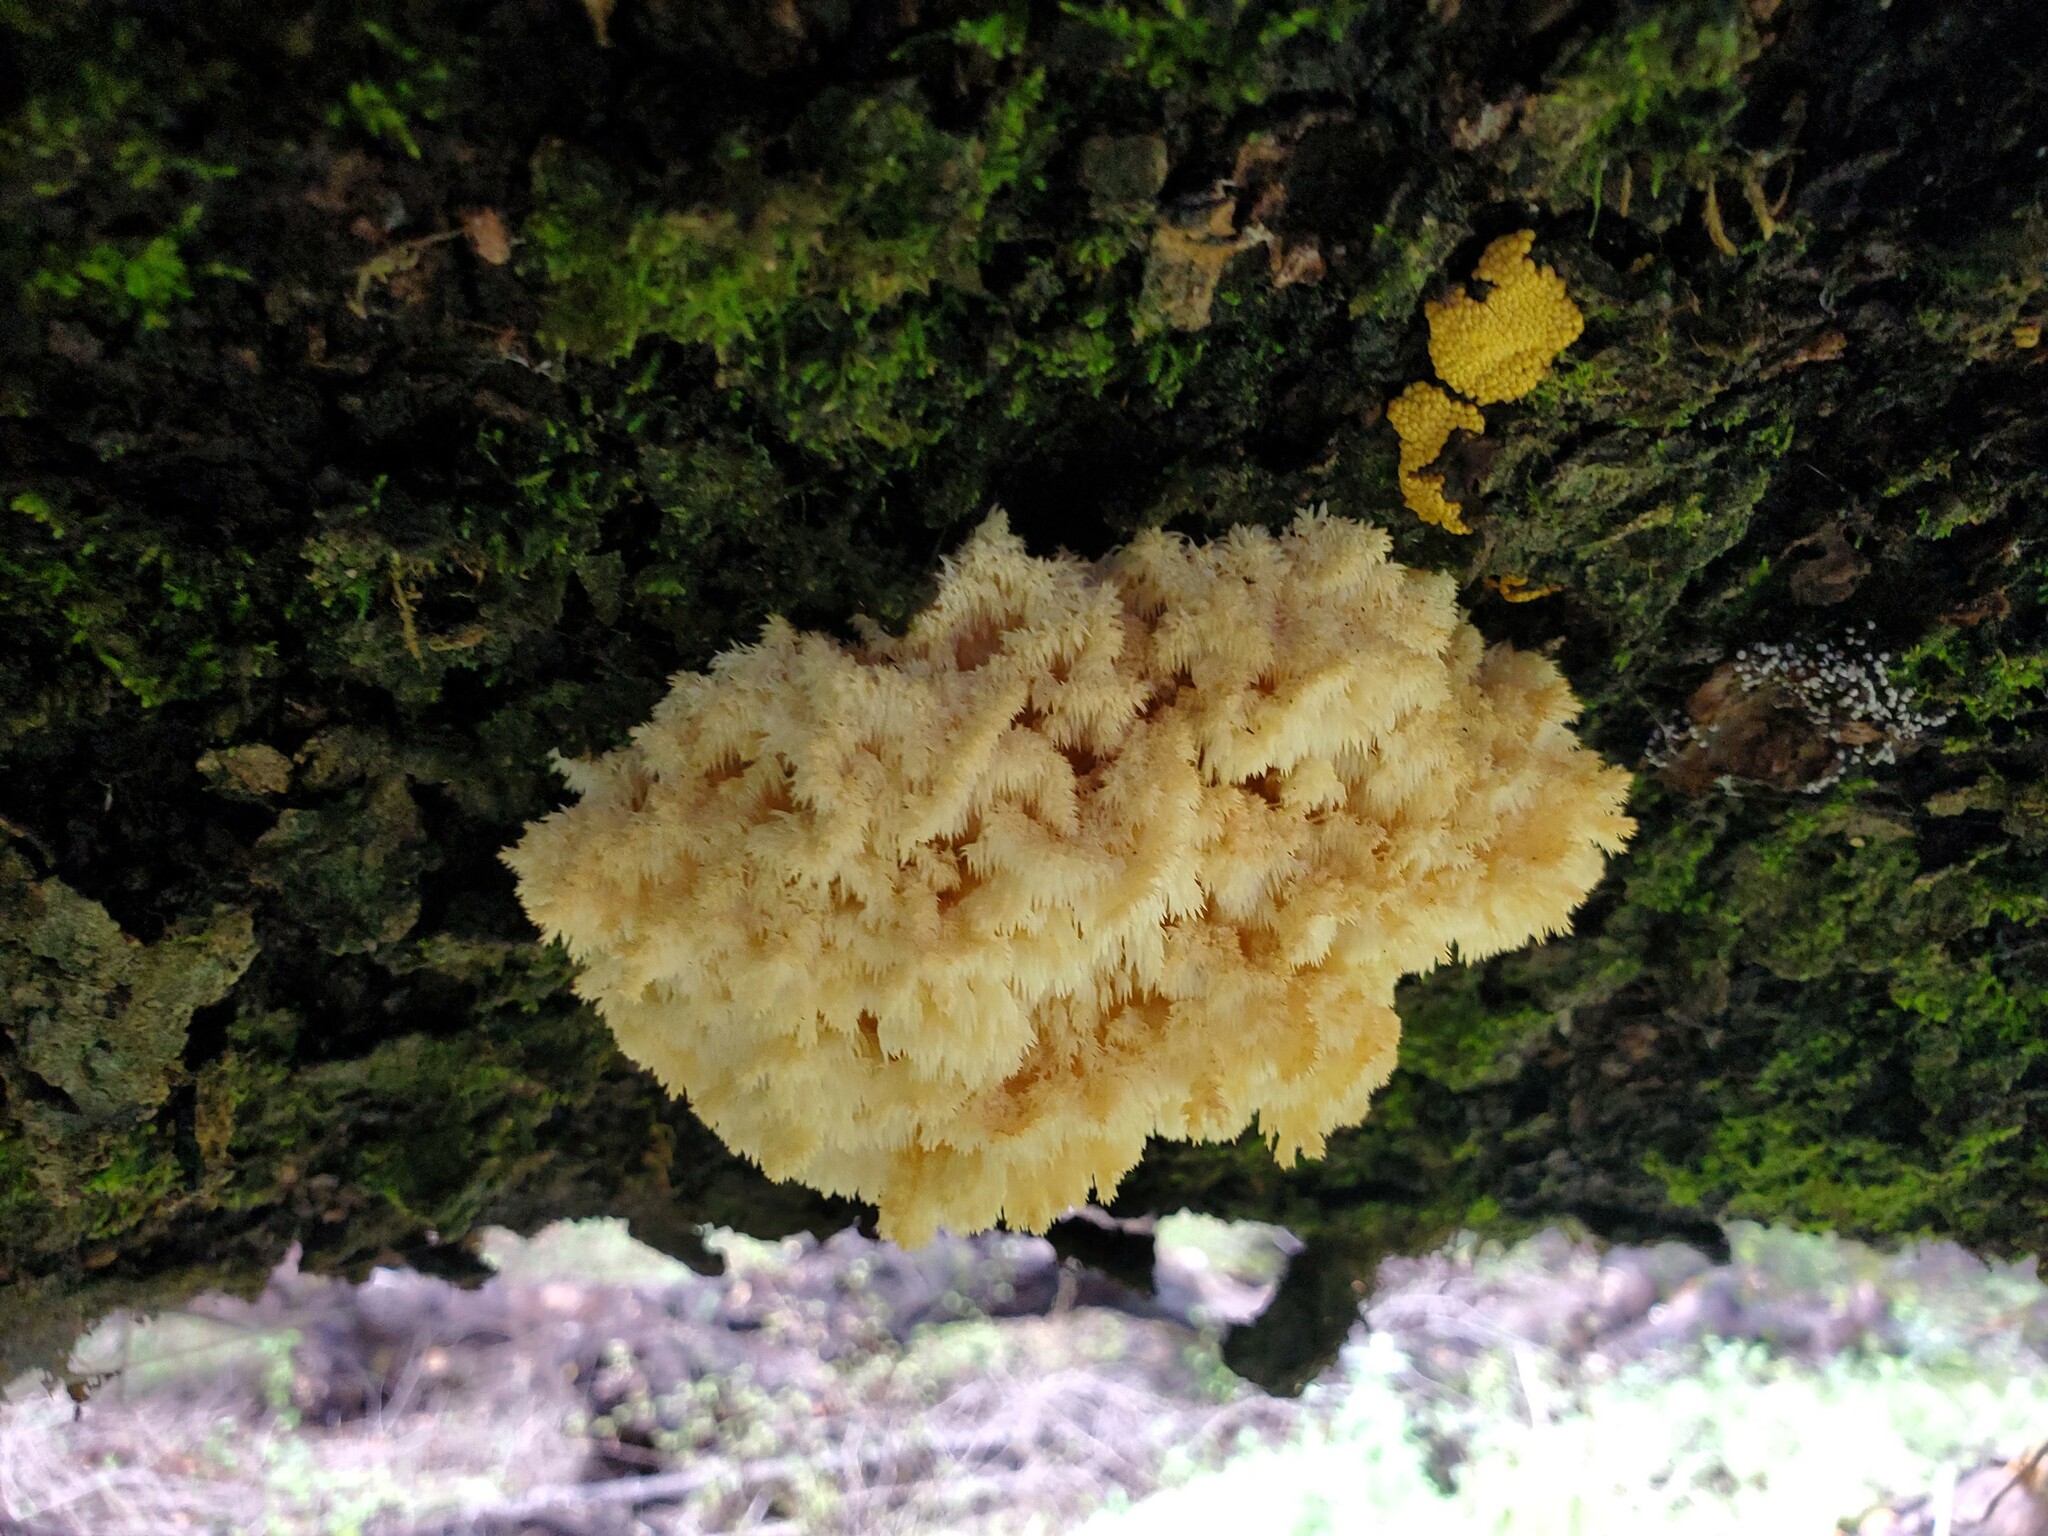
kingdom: Fungi
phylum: Basidiomycota
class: Agaricomycetes
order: Russulales
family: Hericiaceae
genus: Hericium
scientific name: Hericium coralloides
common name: Coral tooth
